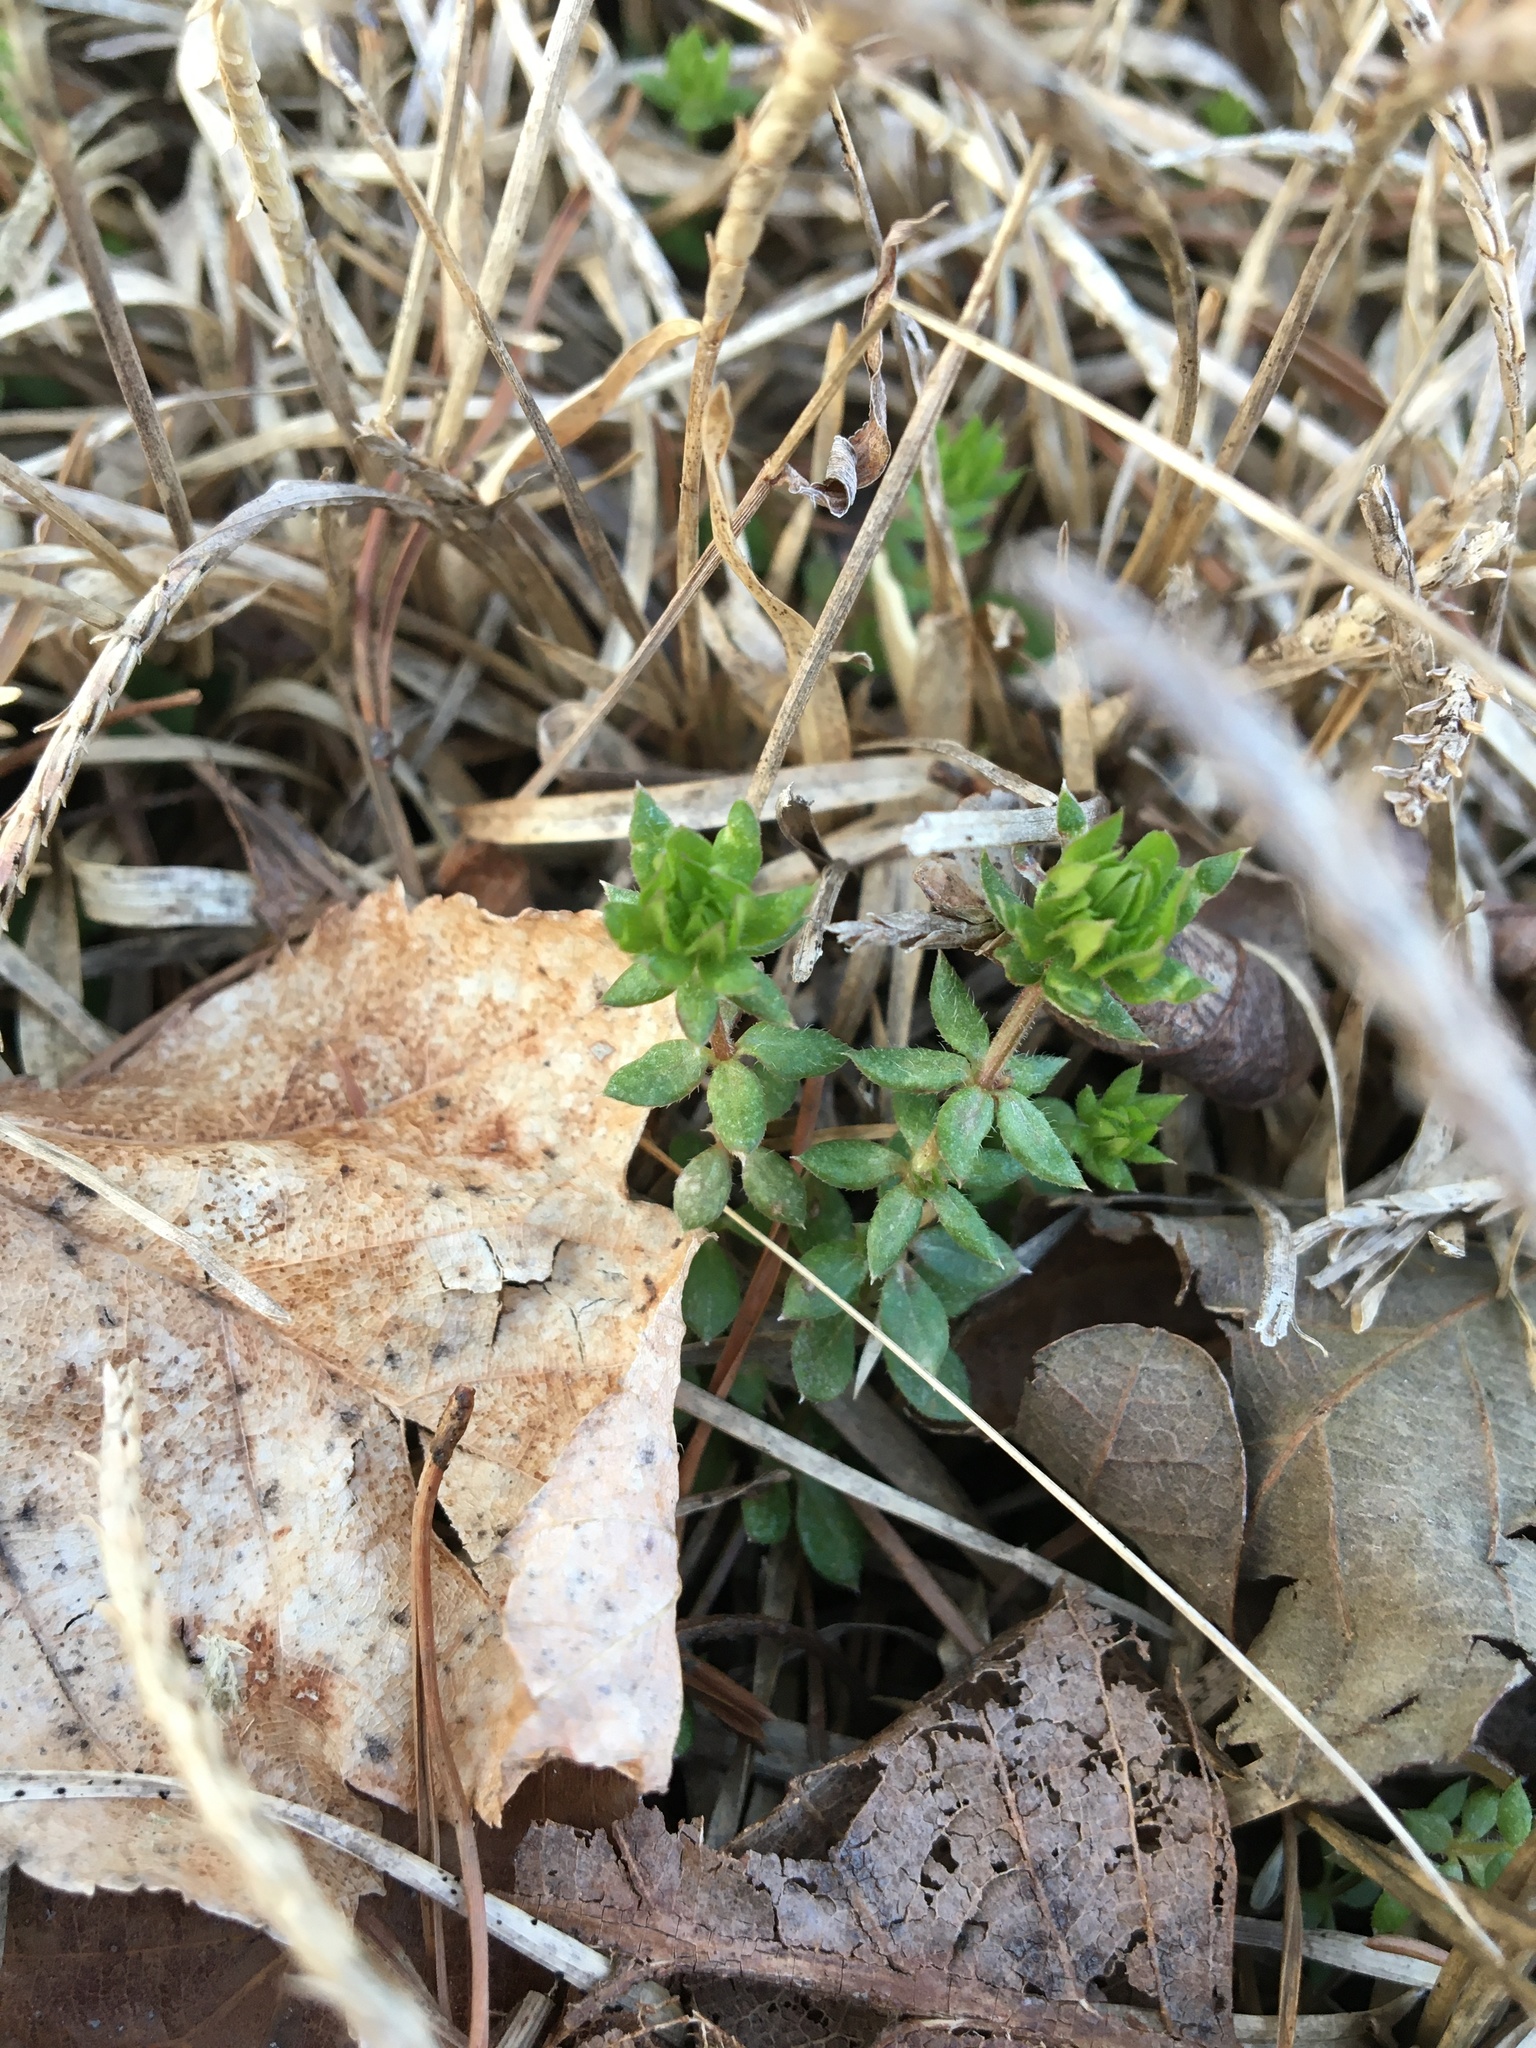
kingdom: Plantae
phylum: Tracheophyta
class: Magnoliopsida
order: Gentianales
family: Rubiaceae
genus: Sherardia
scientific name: Sherardia arvensis
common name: Field madder
